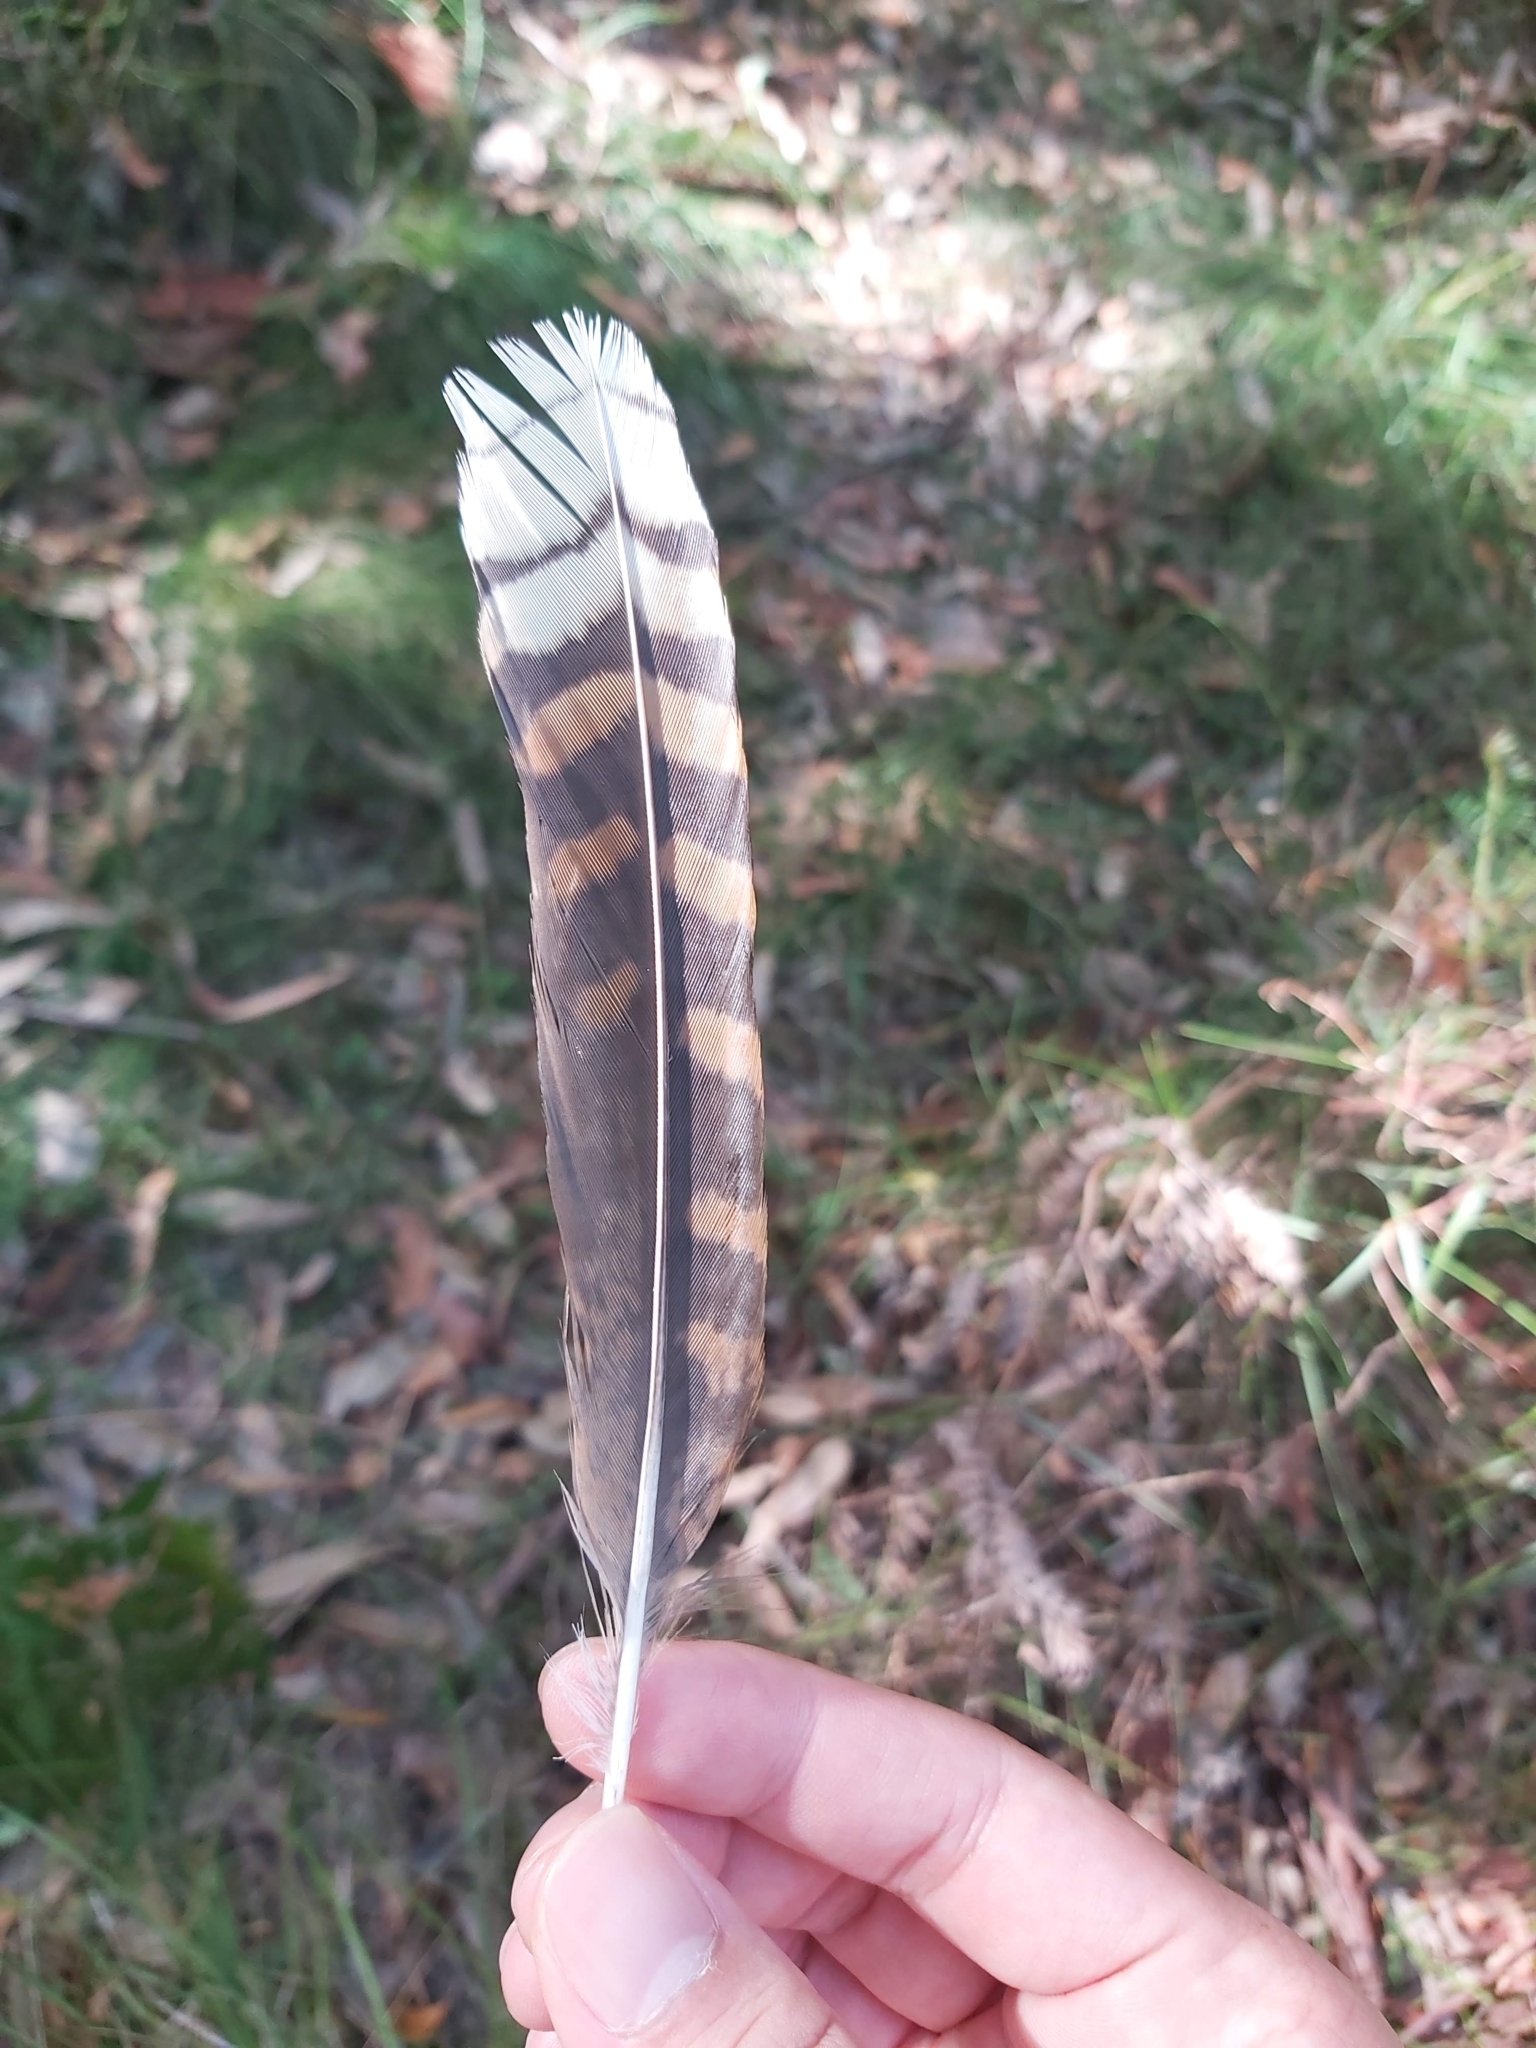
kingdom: Animalia
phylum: Chordata
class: Aves
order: Coraciiformes
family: Alcedinidae
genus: Dacelo
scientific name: Dacelo novaeguineae
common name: Laughing kookaburra
